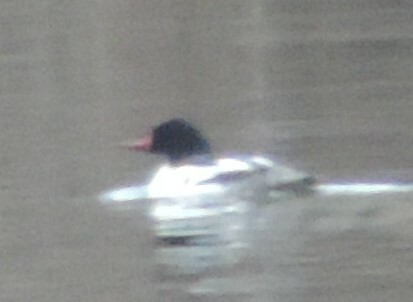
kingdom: Animalia
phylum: Chordata
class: Aves
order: Anseriformes
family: Anatidae
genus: Mergus
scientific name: Mergus merganser
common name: Common merganser
